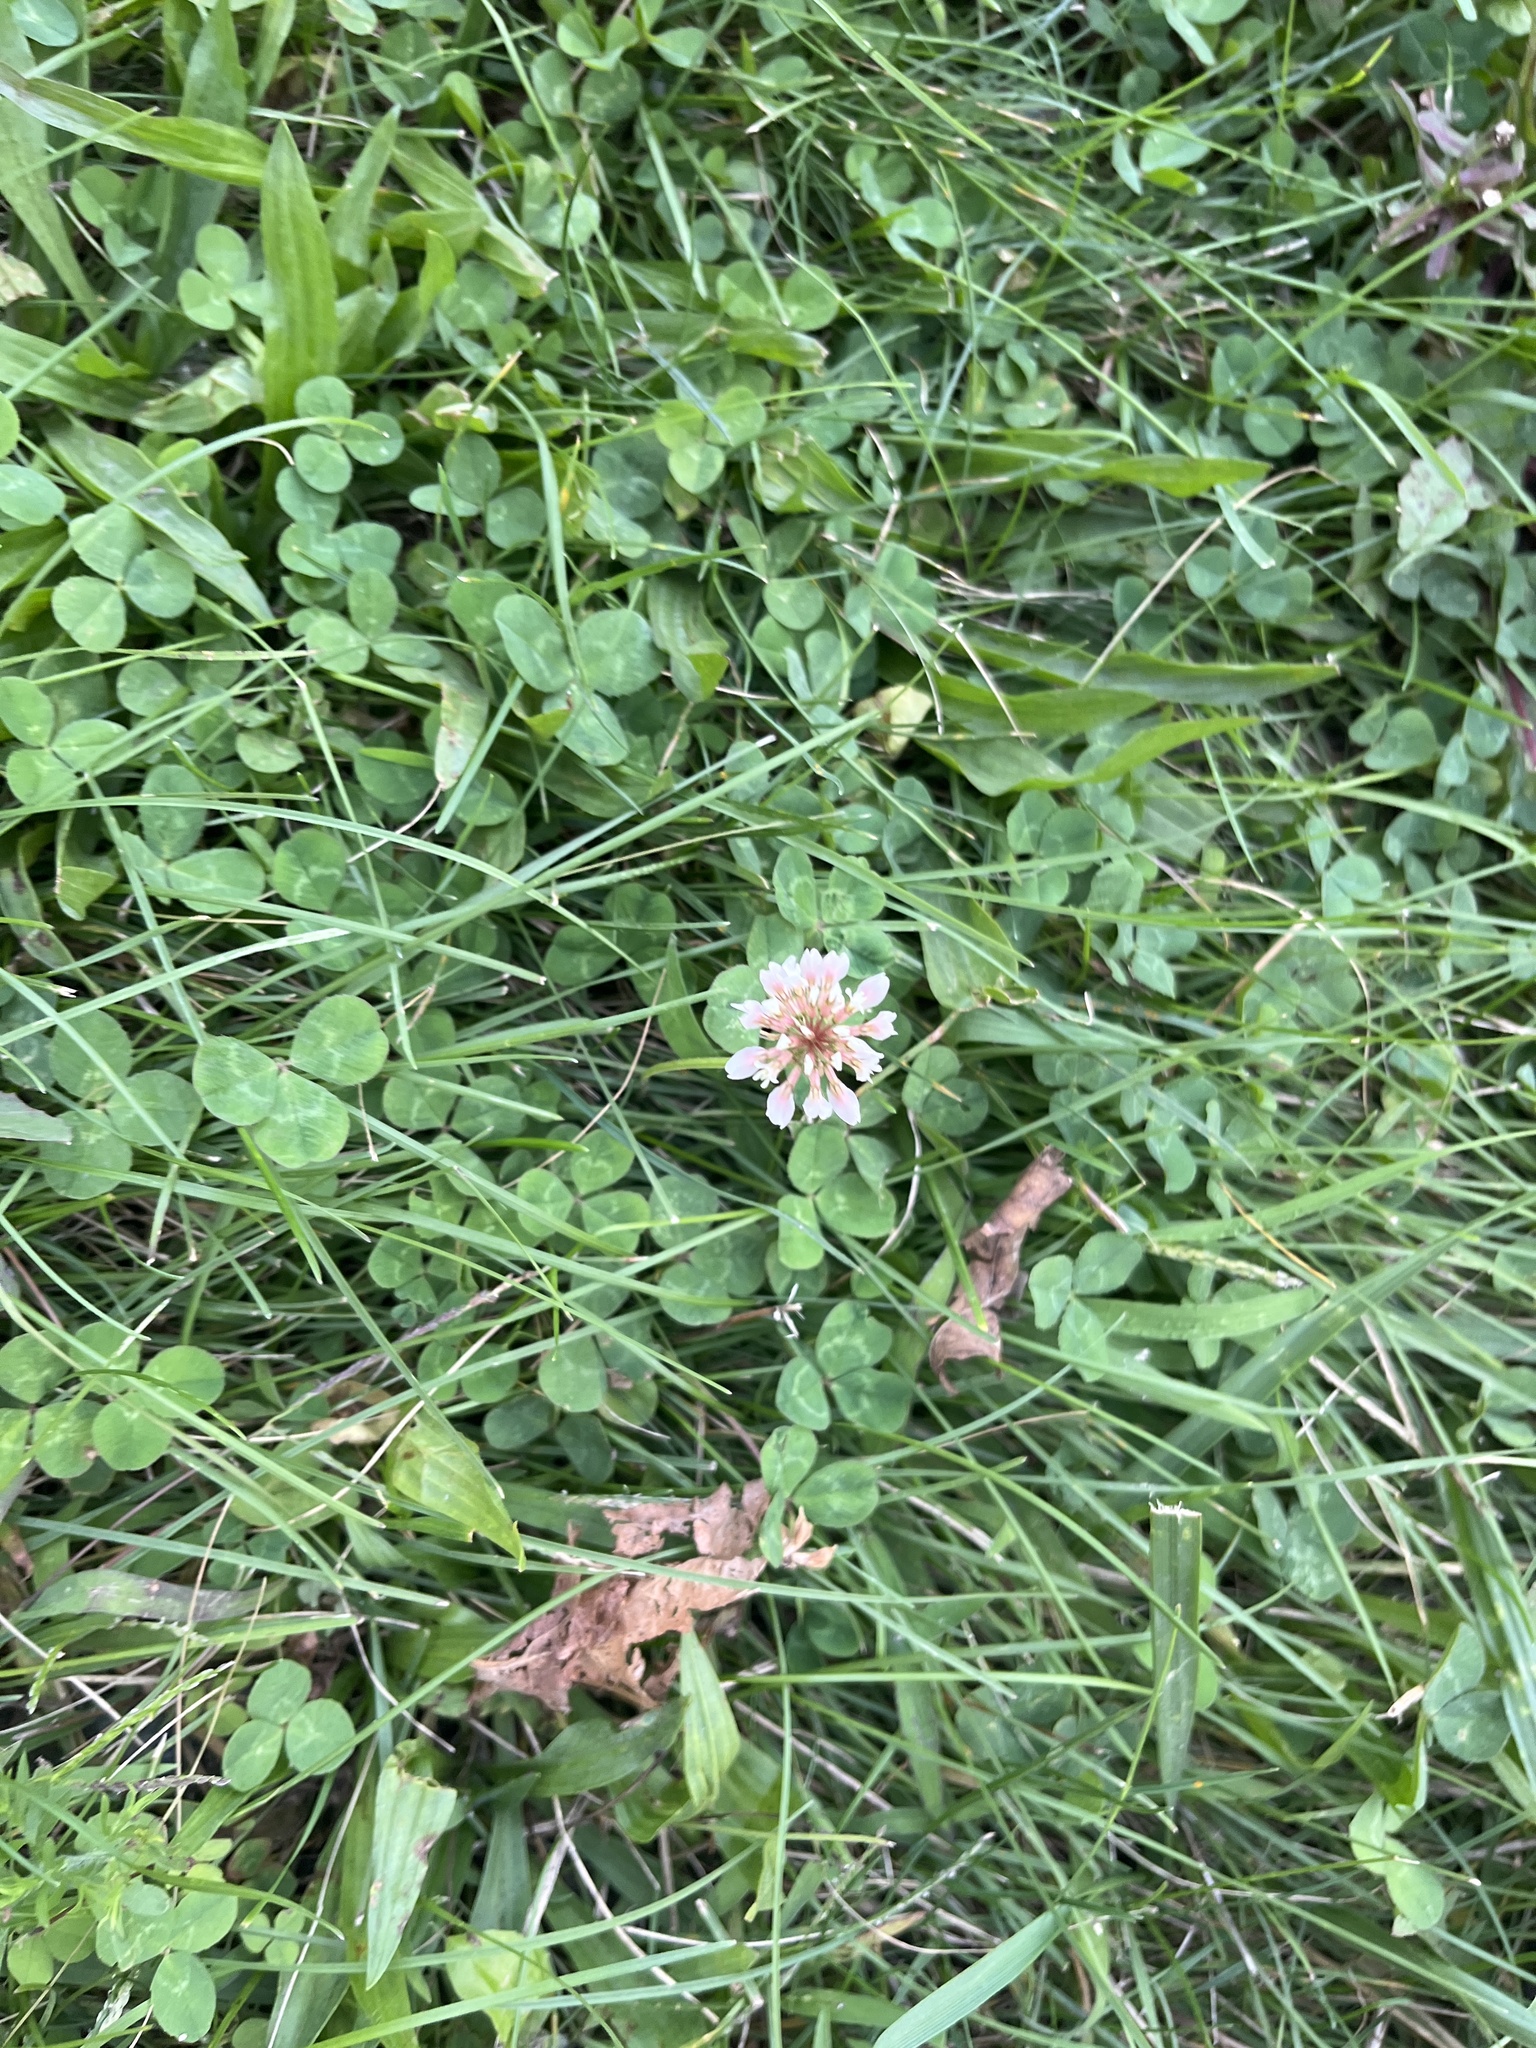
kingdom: Plantae
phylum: Tracheophyta
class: Magnoliopsida
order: Fabales
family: Fabaceae
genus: Trifolium
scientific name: Trifolium repens
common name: White clover
